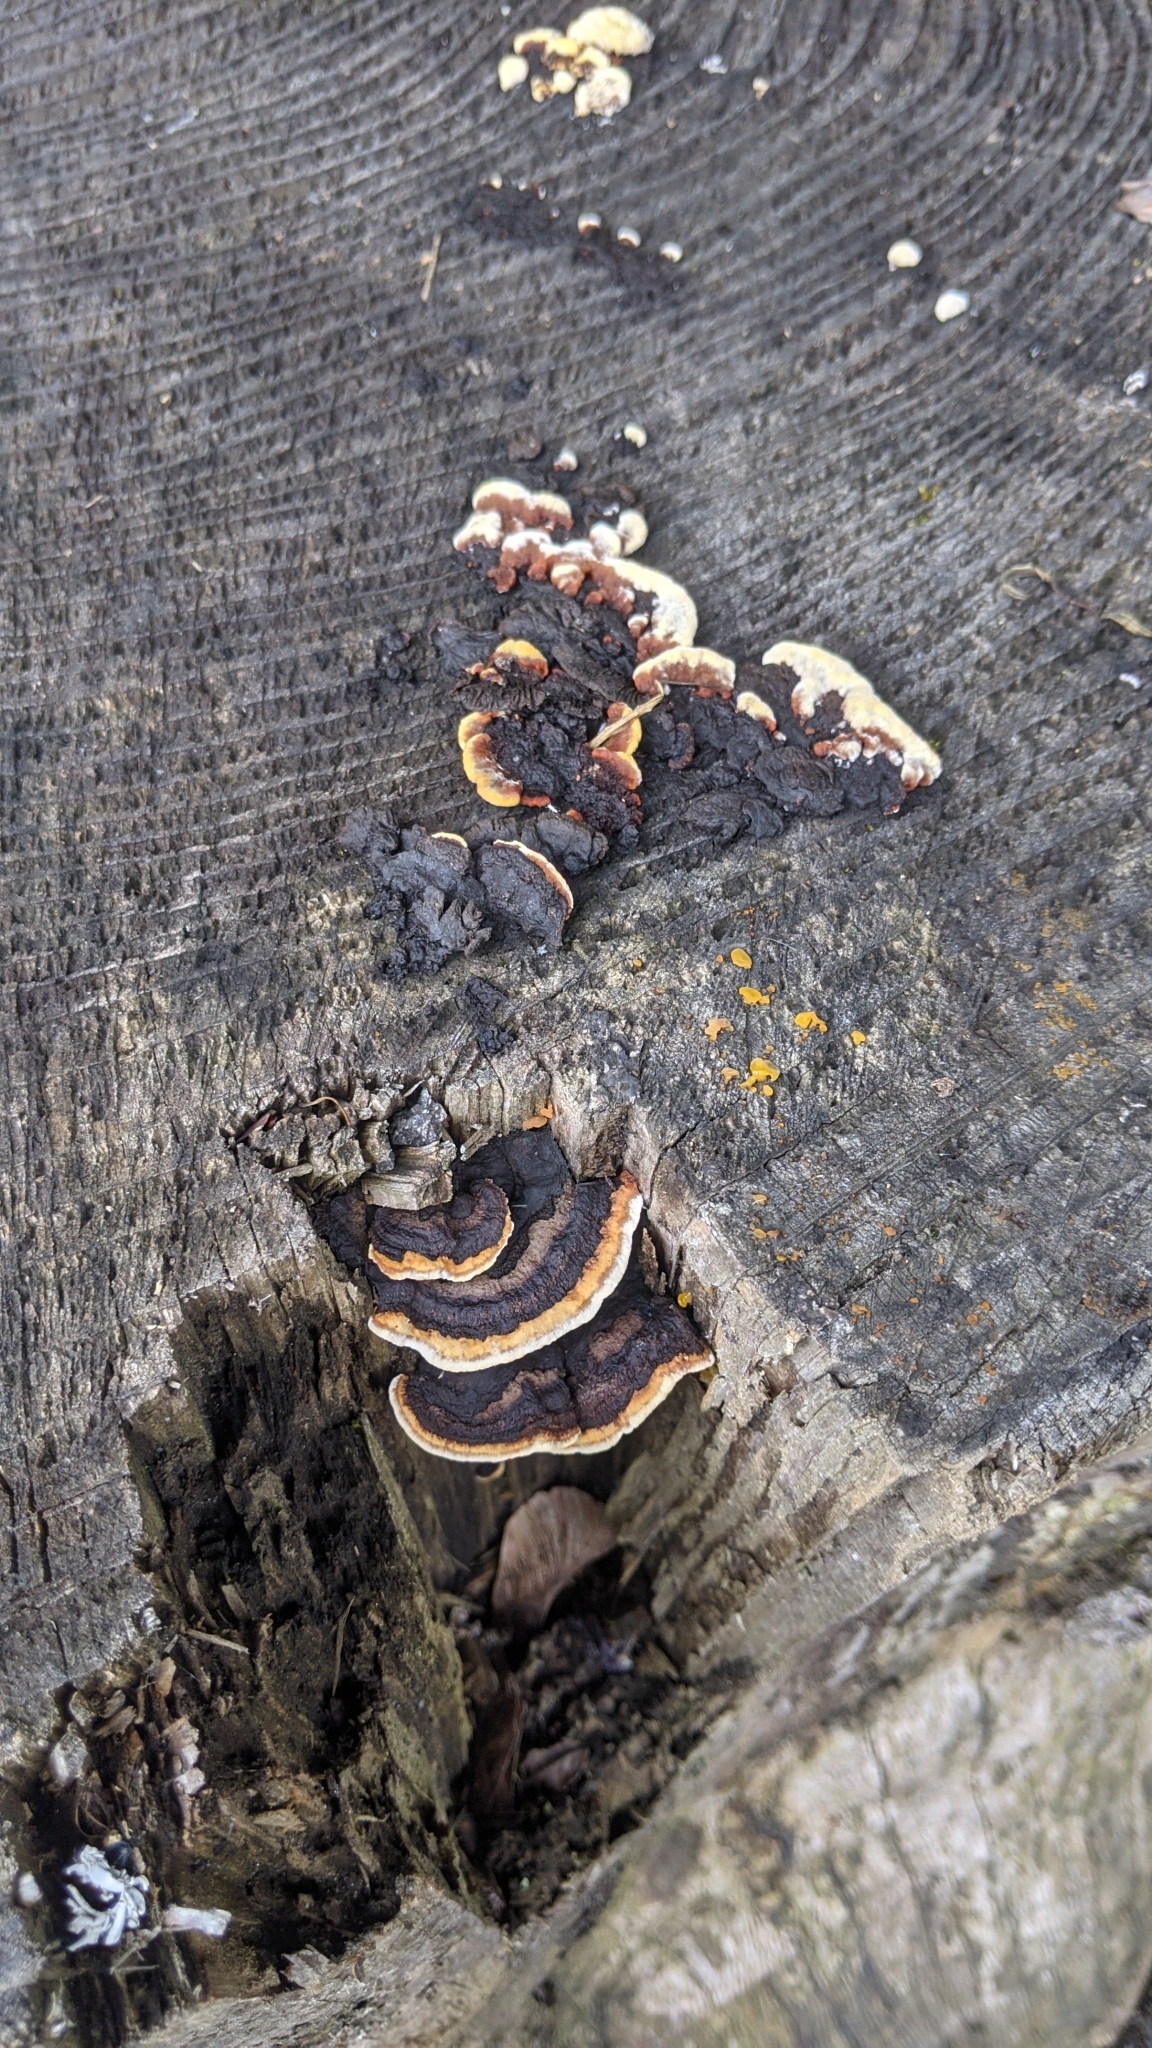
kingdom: Fungi
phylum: Basidiomycota
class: Agaricomycetes
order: Gloeophyllales
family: Gloeophyllaceae
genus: Gloeophyllum
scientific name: Gloeophyllum sepiarium
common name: Conifer mazegill
